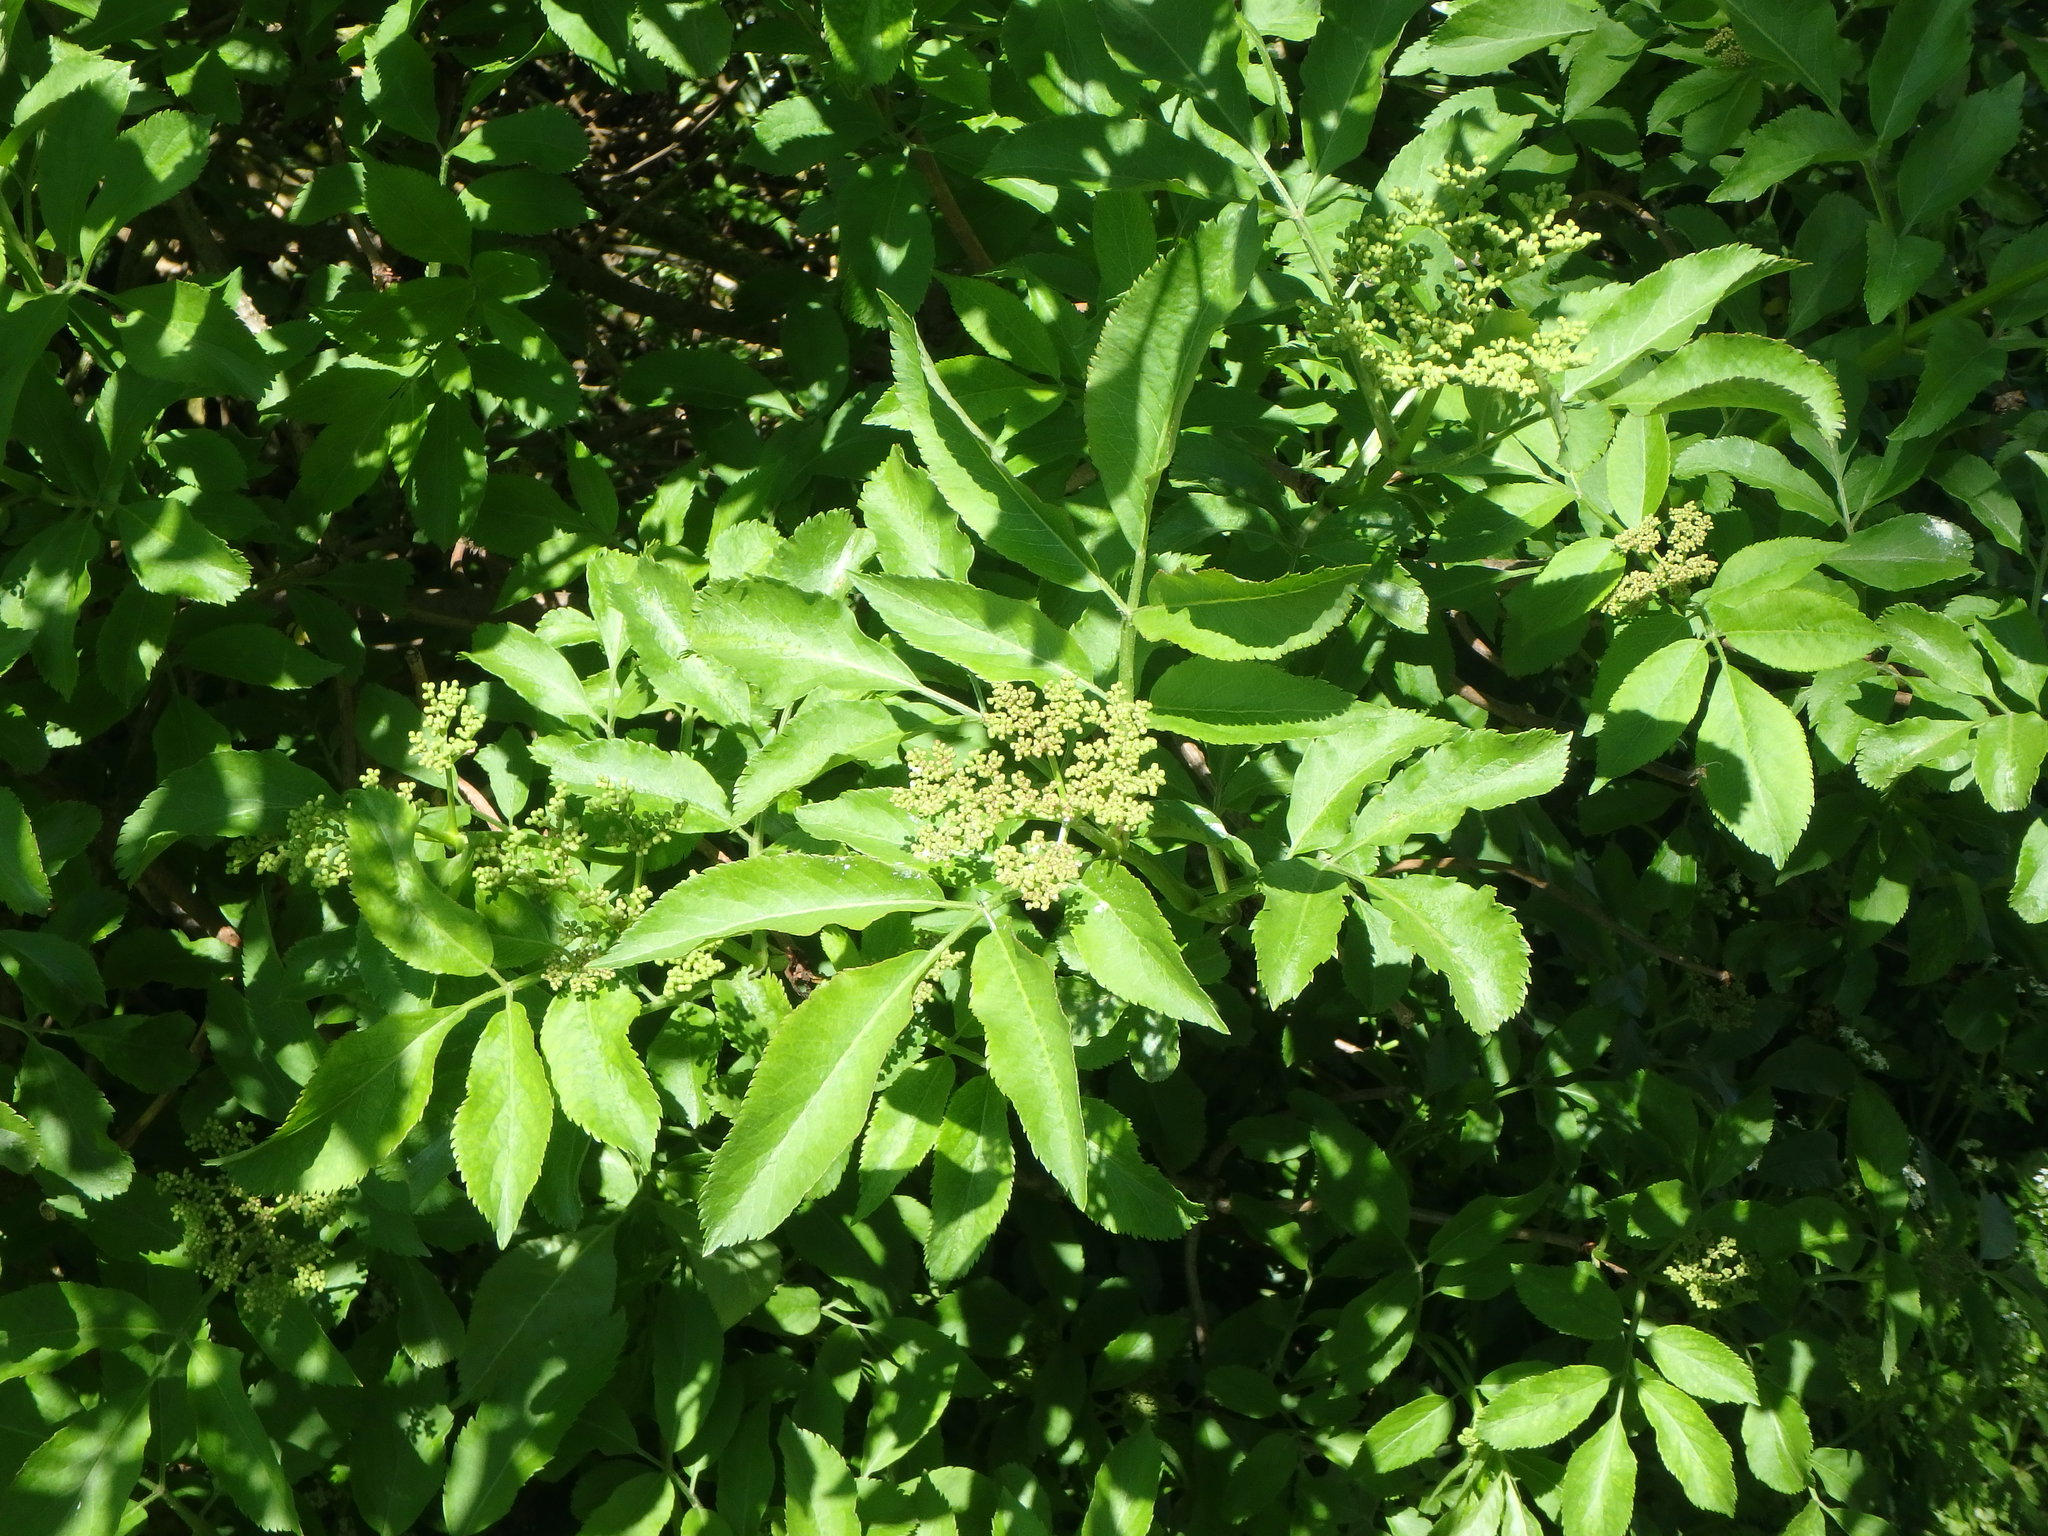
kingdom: Plantae
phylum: Tracheophyta
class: Magnoliopsida
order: Dipsacales
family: Viburnaceae
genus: Sambucus
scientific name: Sambucus nigra
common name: Elder
